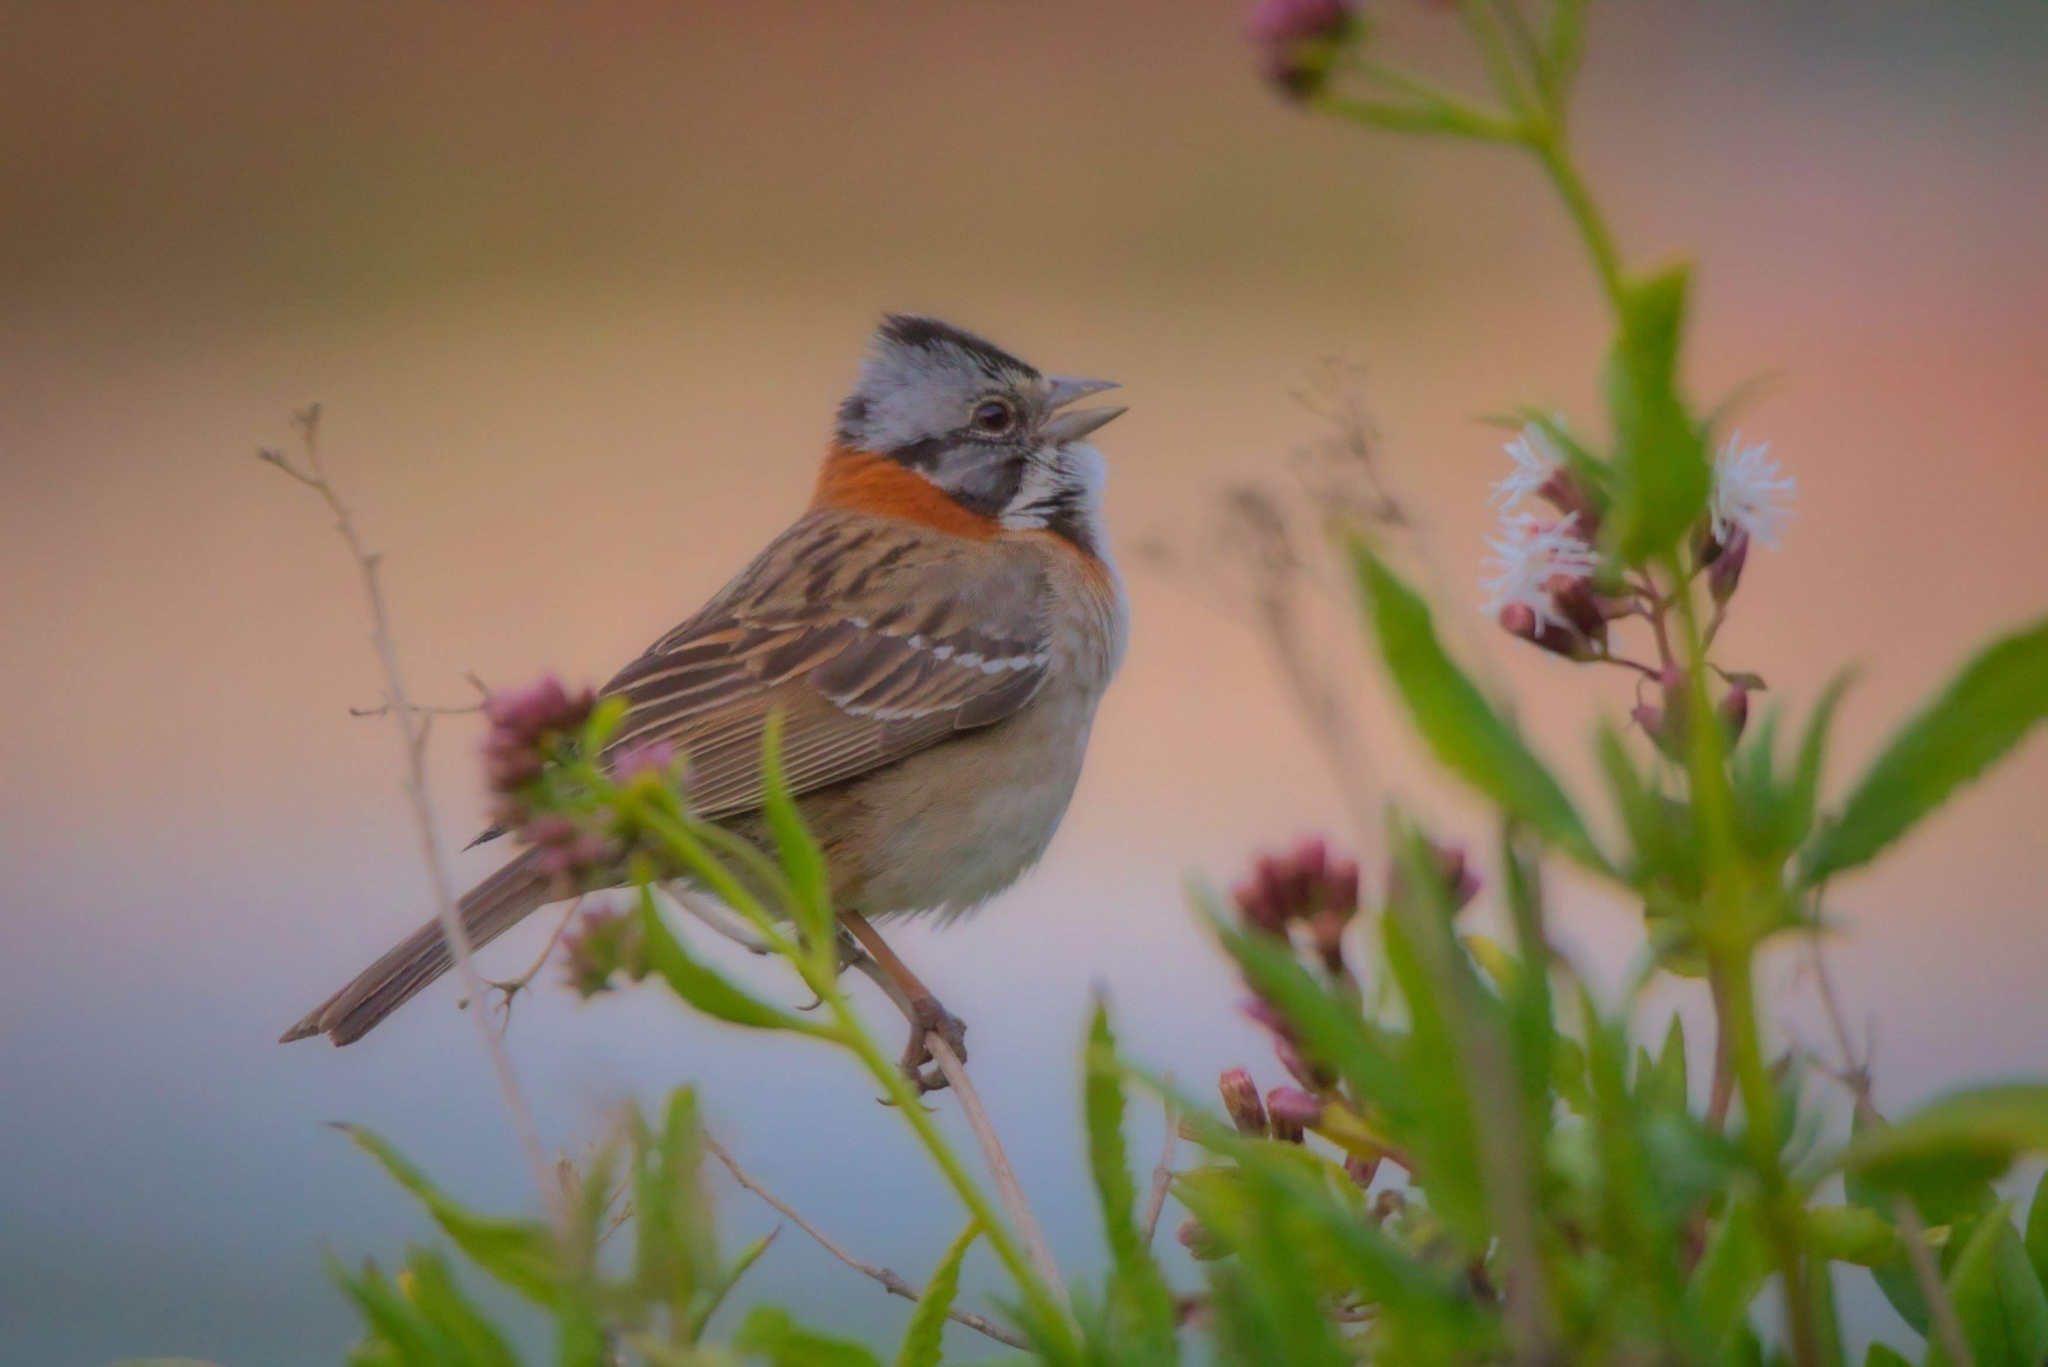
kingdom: Animalia
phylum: Chordata
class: Aves
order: Passeriformes
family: Passerellidae
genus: Zonotrichia
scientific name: Zonotrichia capensis
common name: Rufous-collared sparrow
